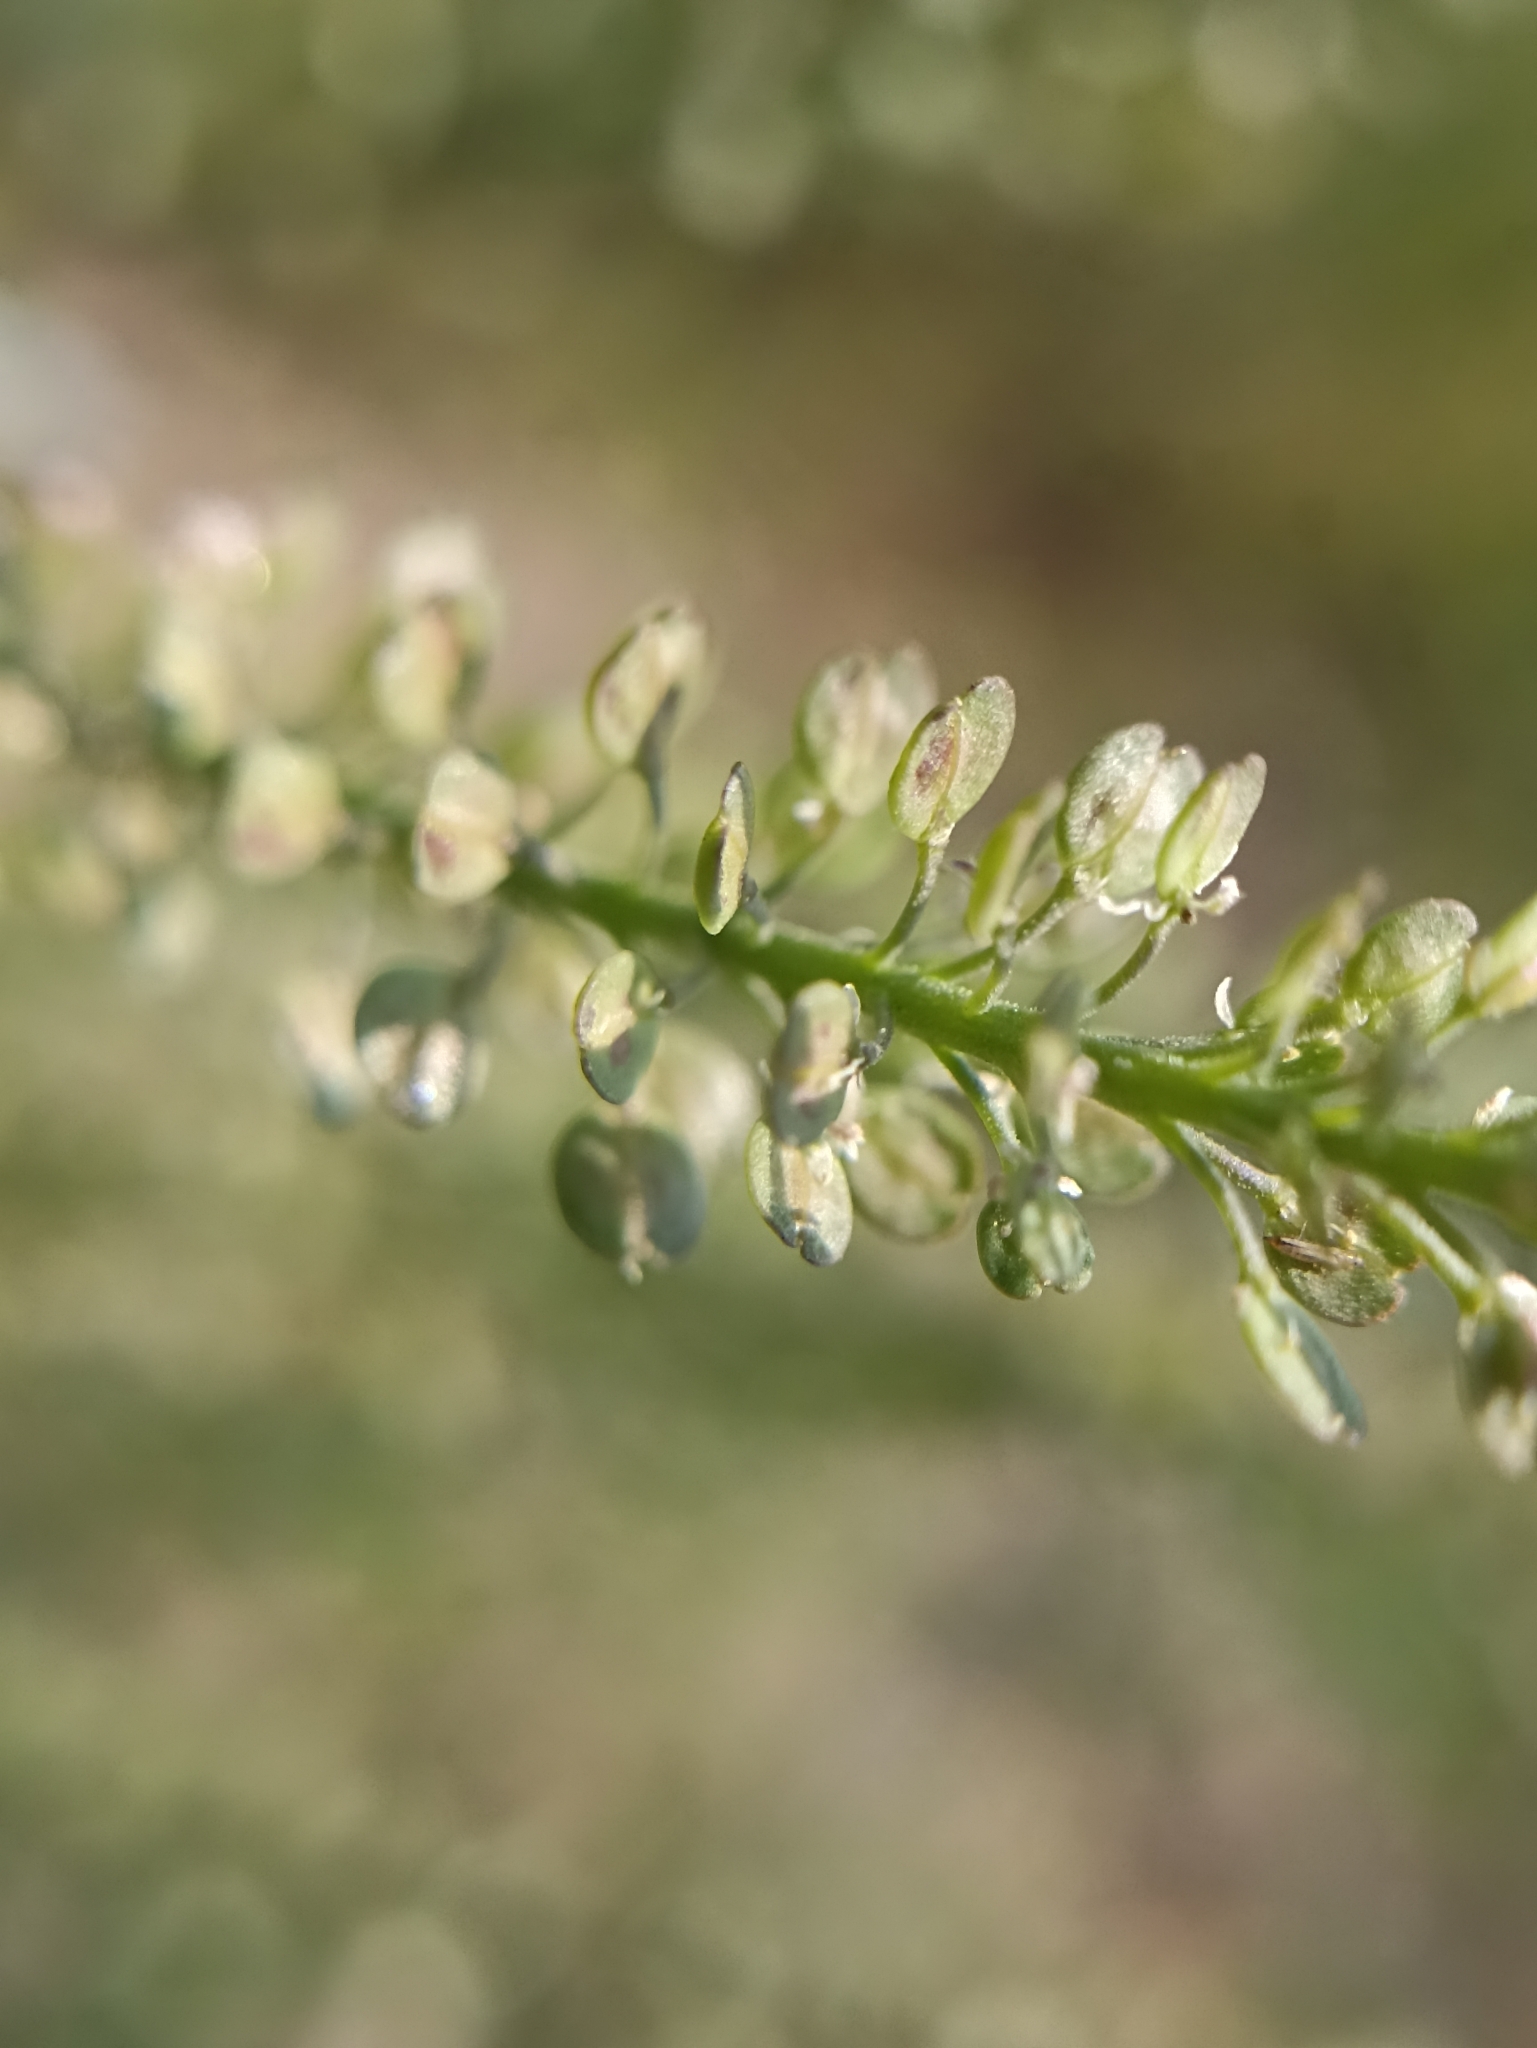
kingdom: Plantae
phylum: Tracheophyta
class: Magnoliopsida
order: Brassicales
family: Brassicaceae
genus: Lepidium
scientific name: Lepidium densiflorum
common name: Miner's pepperwort
